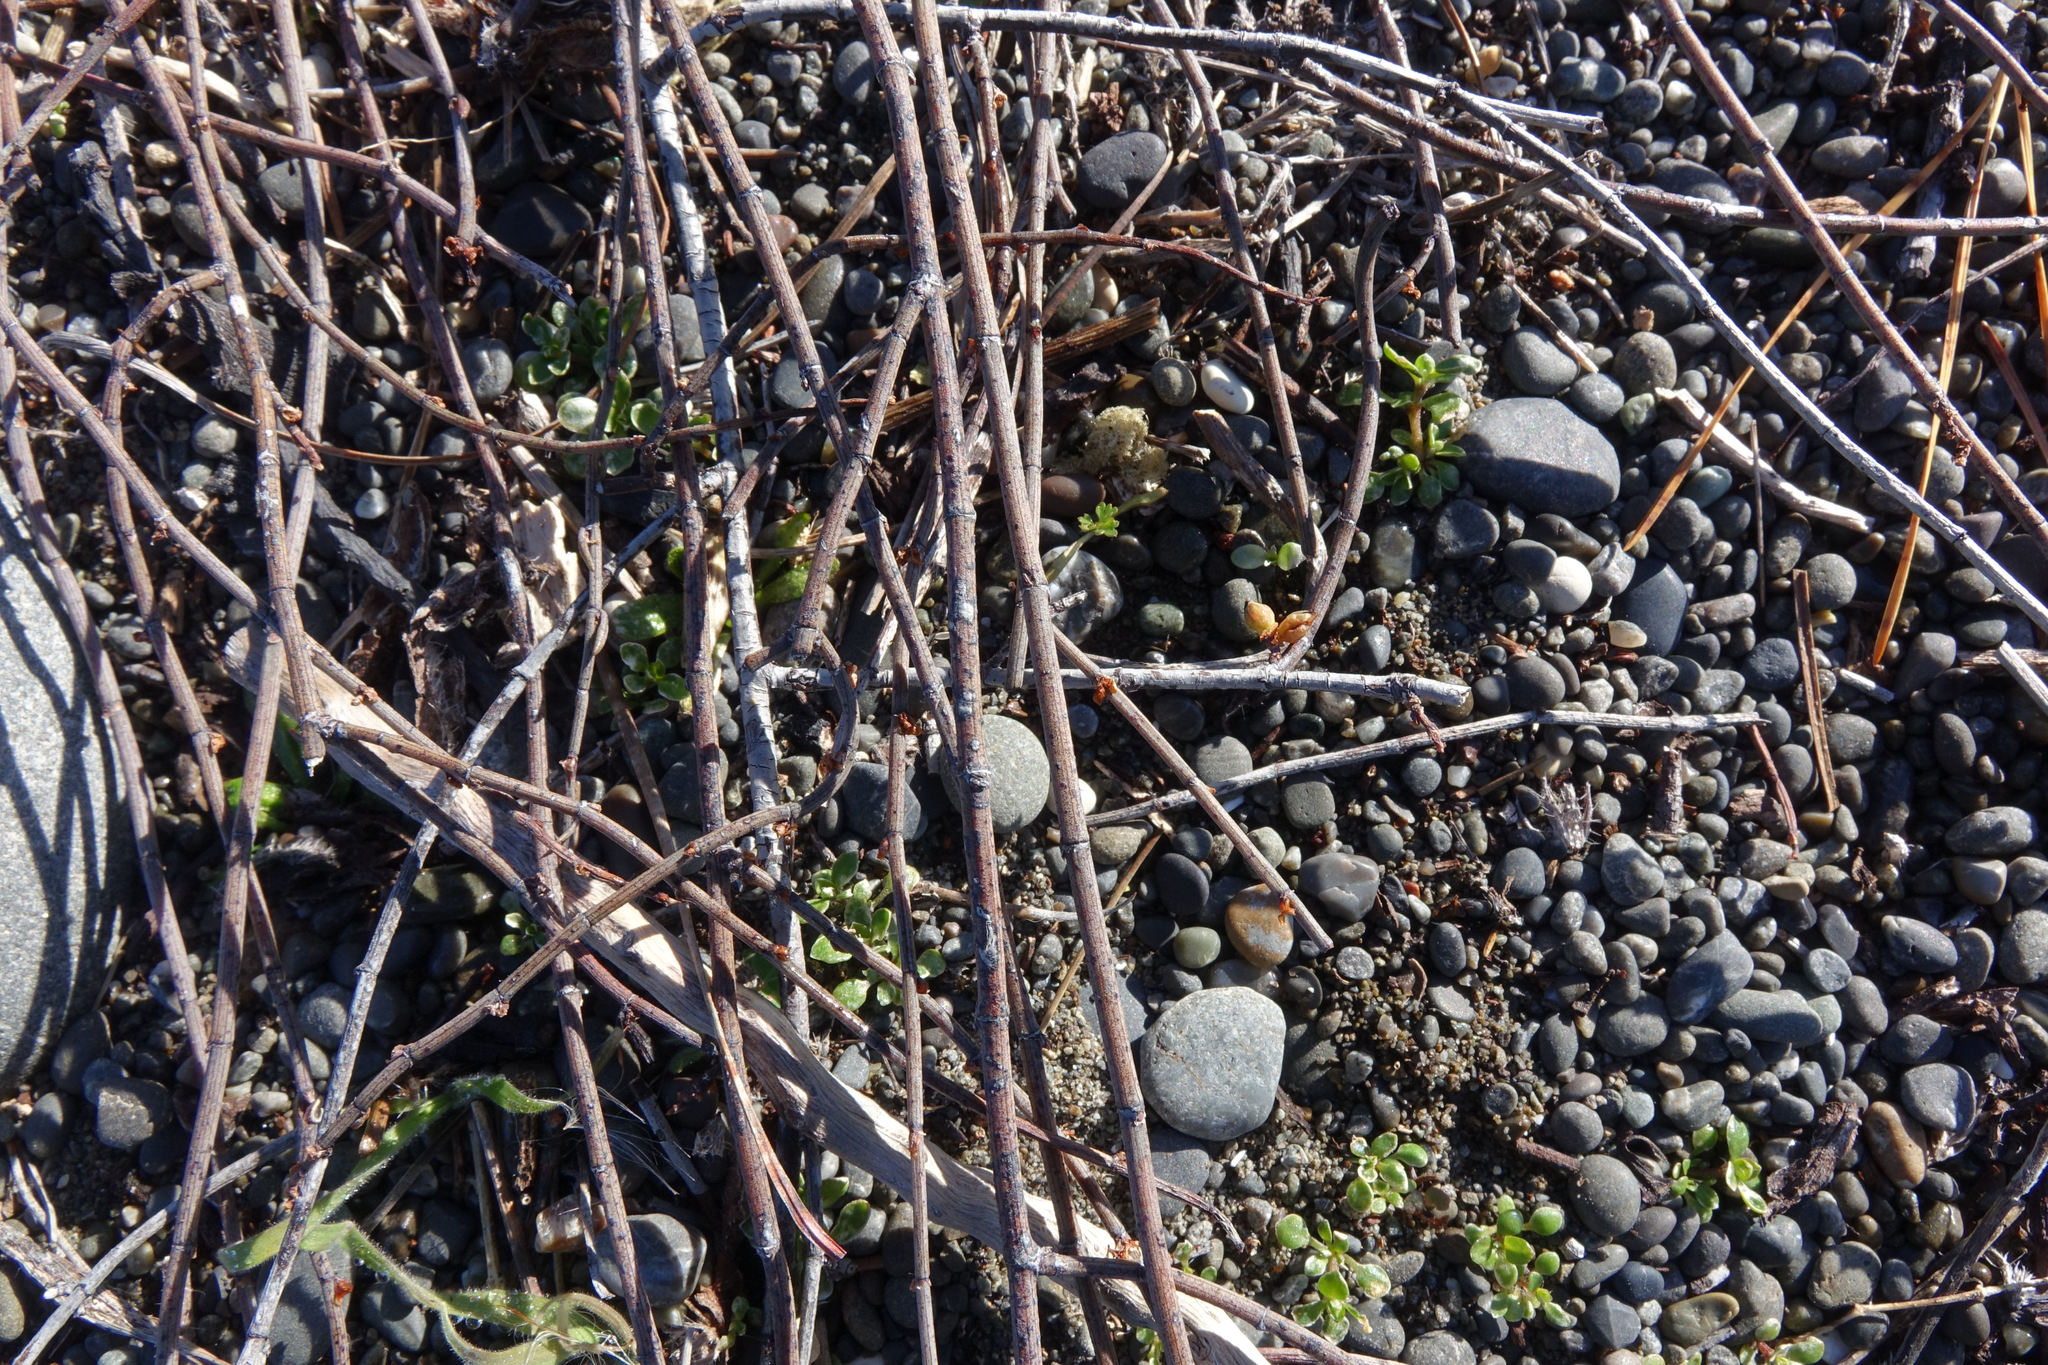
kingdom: Plantae
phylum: Tracheophyta
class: Magnoliopsida
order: Caryophyllales
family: Polygonaceae
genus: Muehlenbeckia
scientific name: Muehlenbeckia ephedroides
